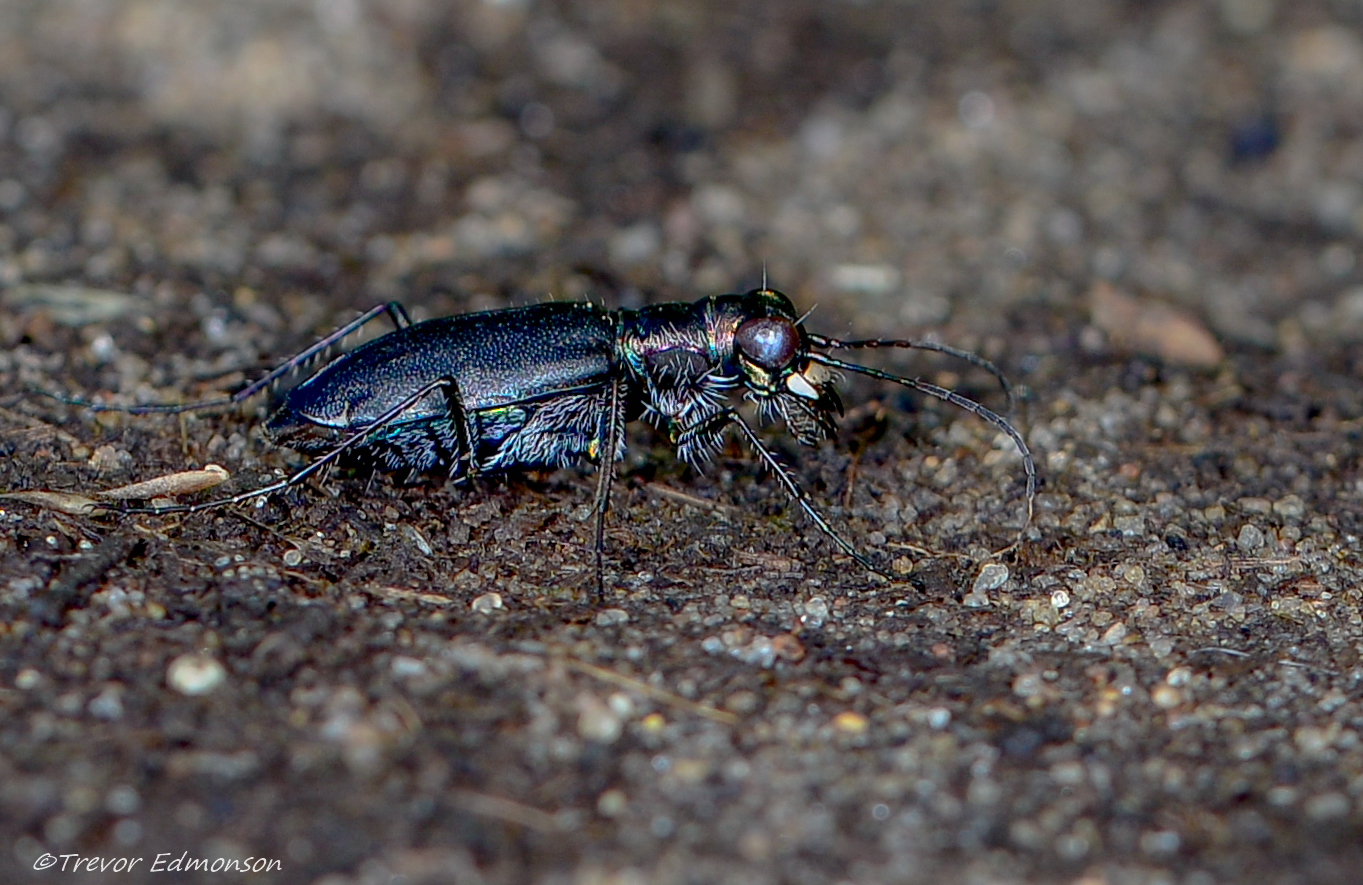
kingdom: Animalia
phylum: Arthropoda
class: Insecta
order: Coleoptera
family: Carabidae
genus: Cicindela
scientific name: Cicindela punctulata
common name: Punctured tiger beetle
